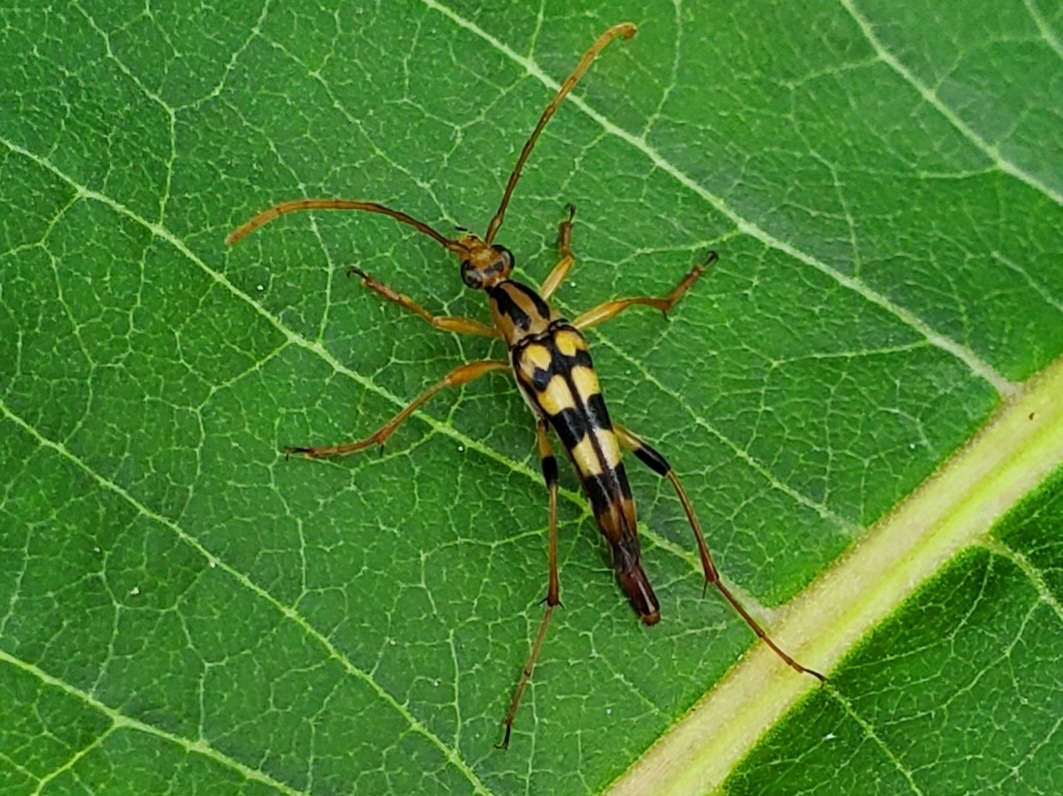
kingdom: Animalia
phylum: Arthropoda
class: Insecta
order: Coleoptera
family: Cerambycidae
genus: Strangalia
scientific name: Strangalia luteicornis
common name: Yellow-horned flower longhorn beetle
